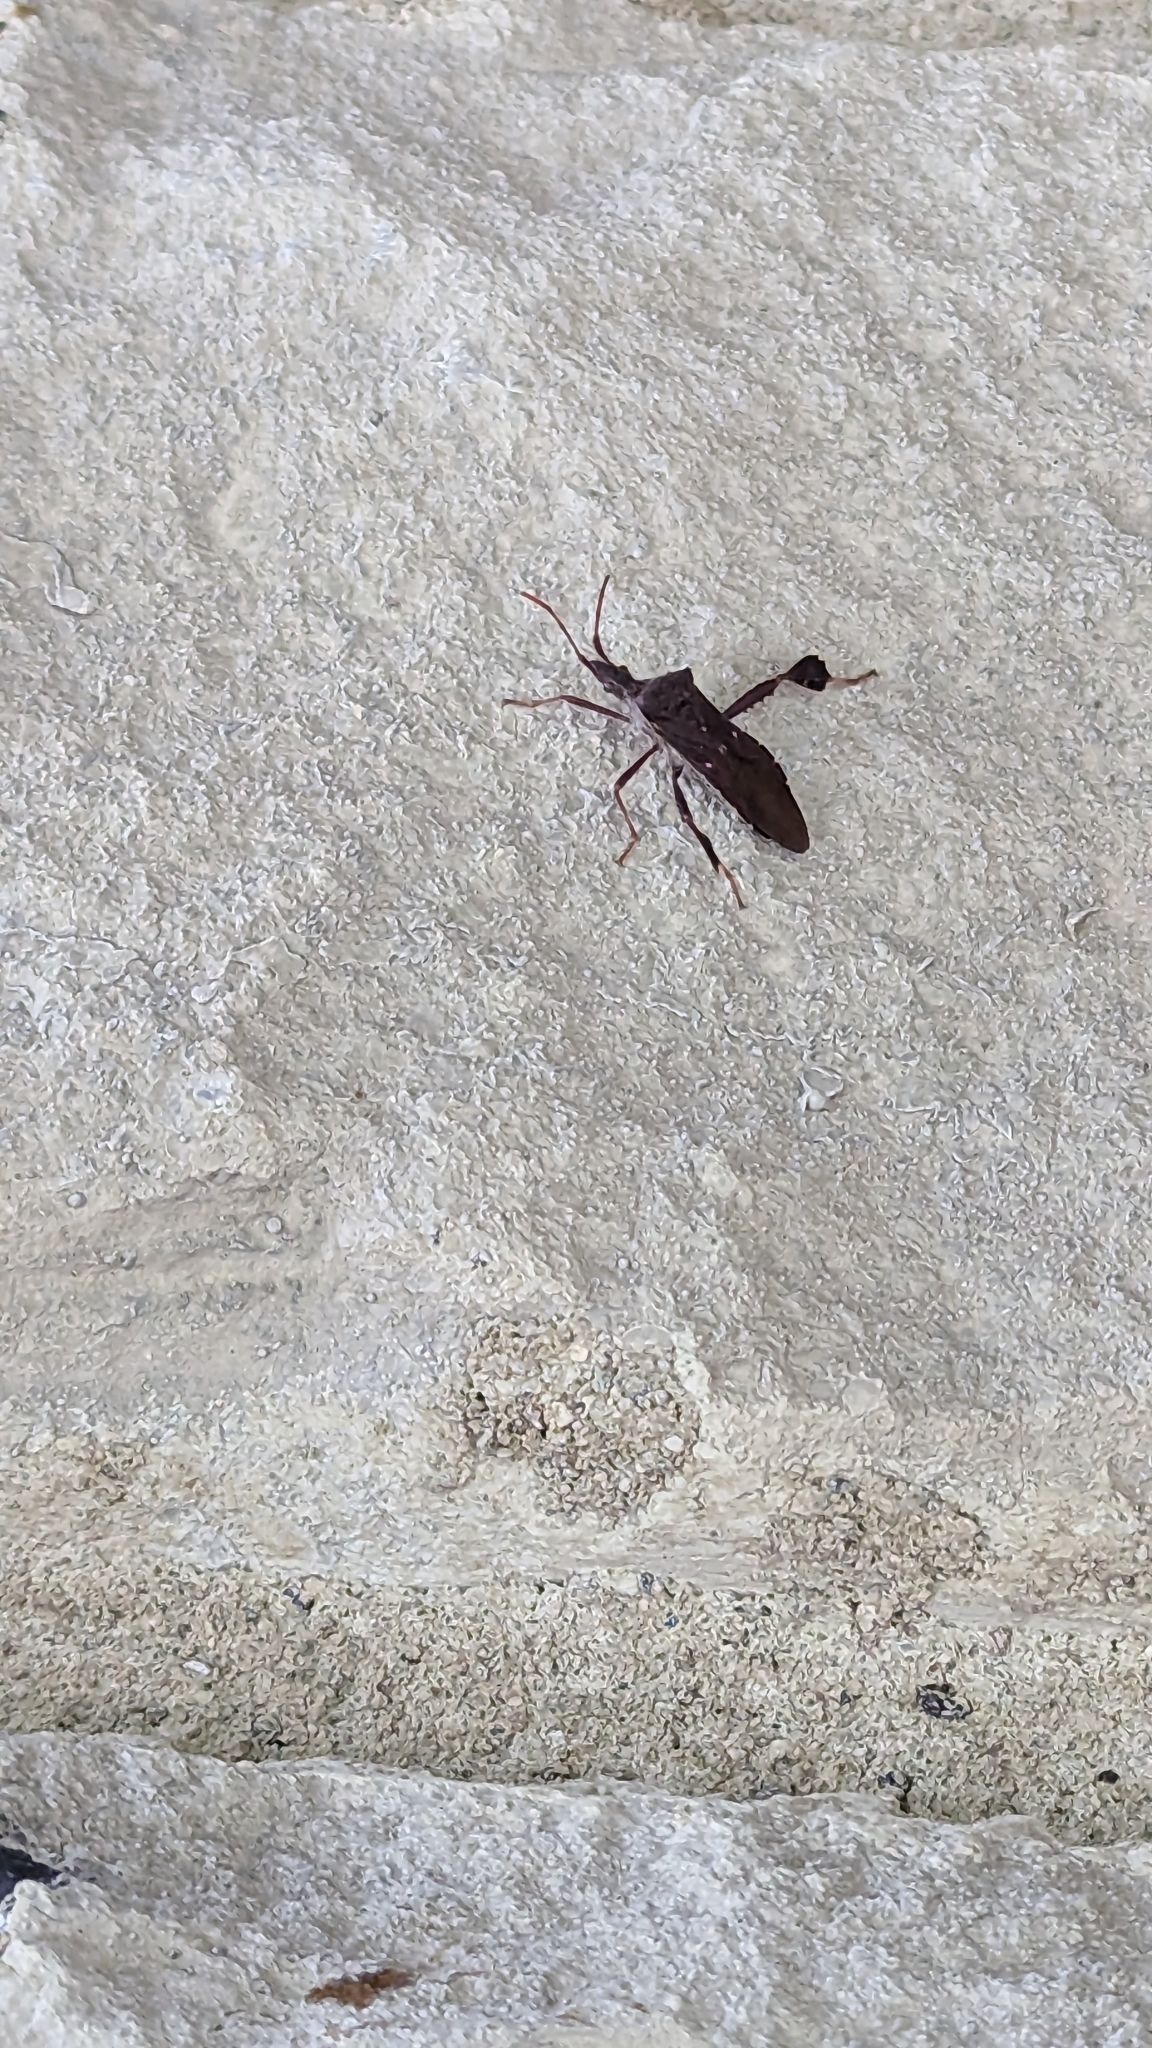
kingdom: Animalia
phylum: Arthropoda
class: Insecta
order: Hemiptera
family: Coreidae
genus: Leptoglossus
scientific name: Leptoglossus oppositus
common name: Northern leaf-footed bug
